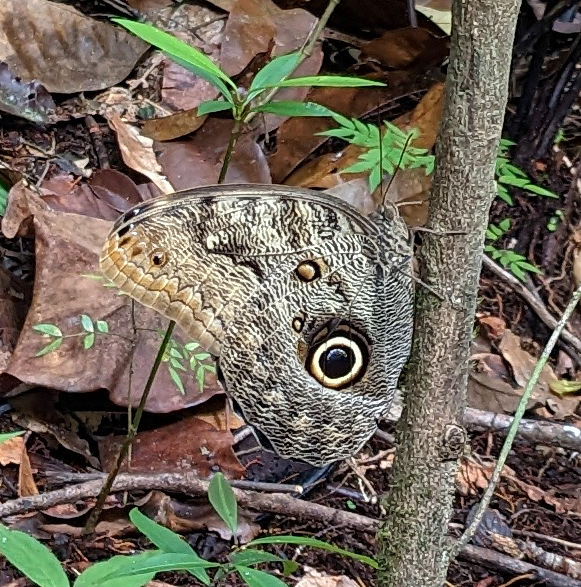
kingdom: Animalia
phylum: Arthropoda
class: Insecta
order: Lepidoptera
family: Nymphalidae
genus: Caligo
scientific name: Caligo brasiliensis
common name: Dark owl-butterfly
